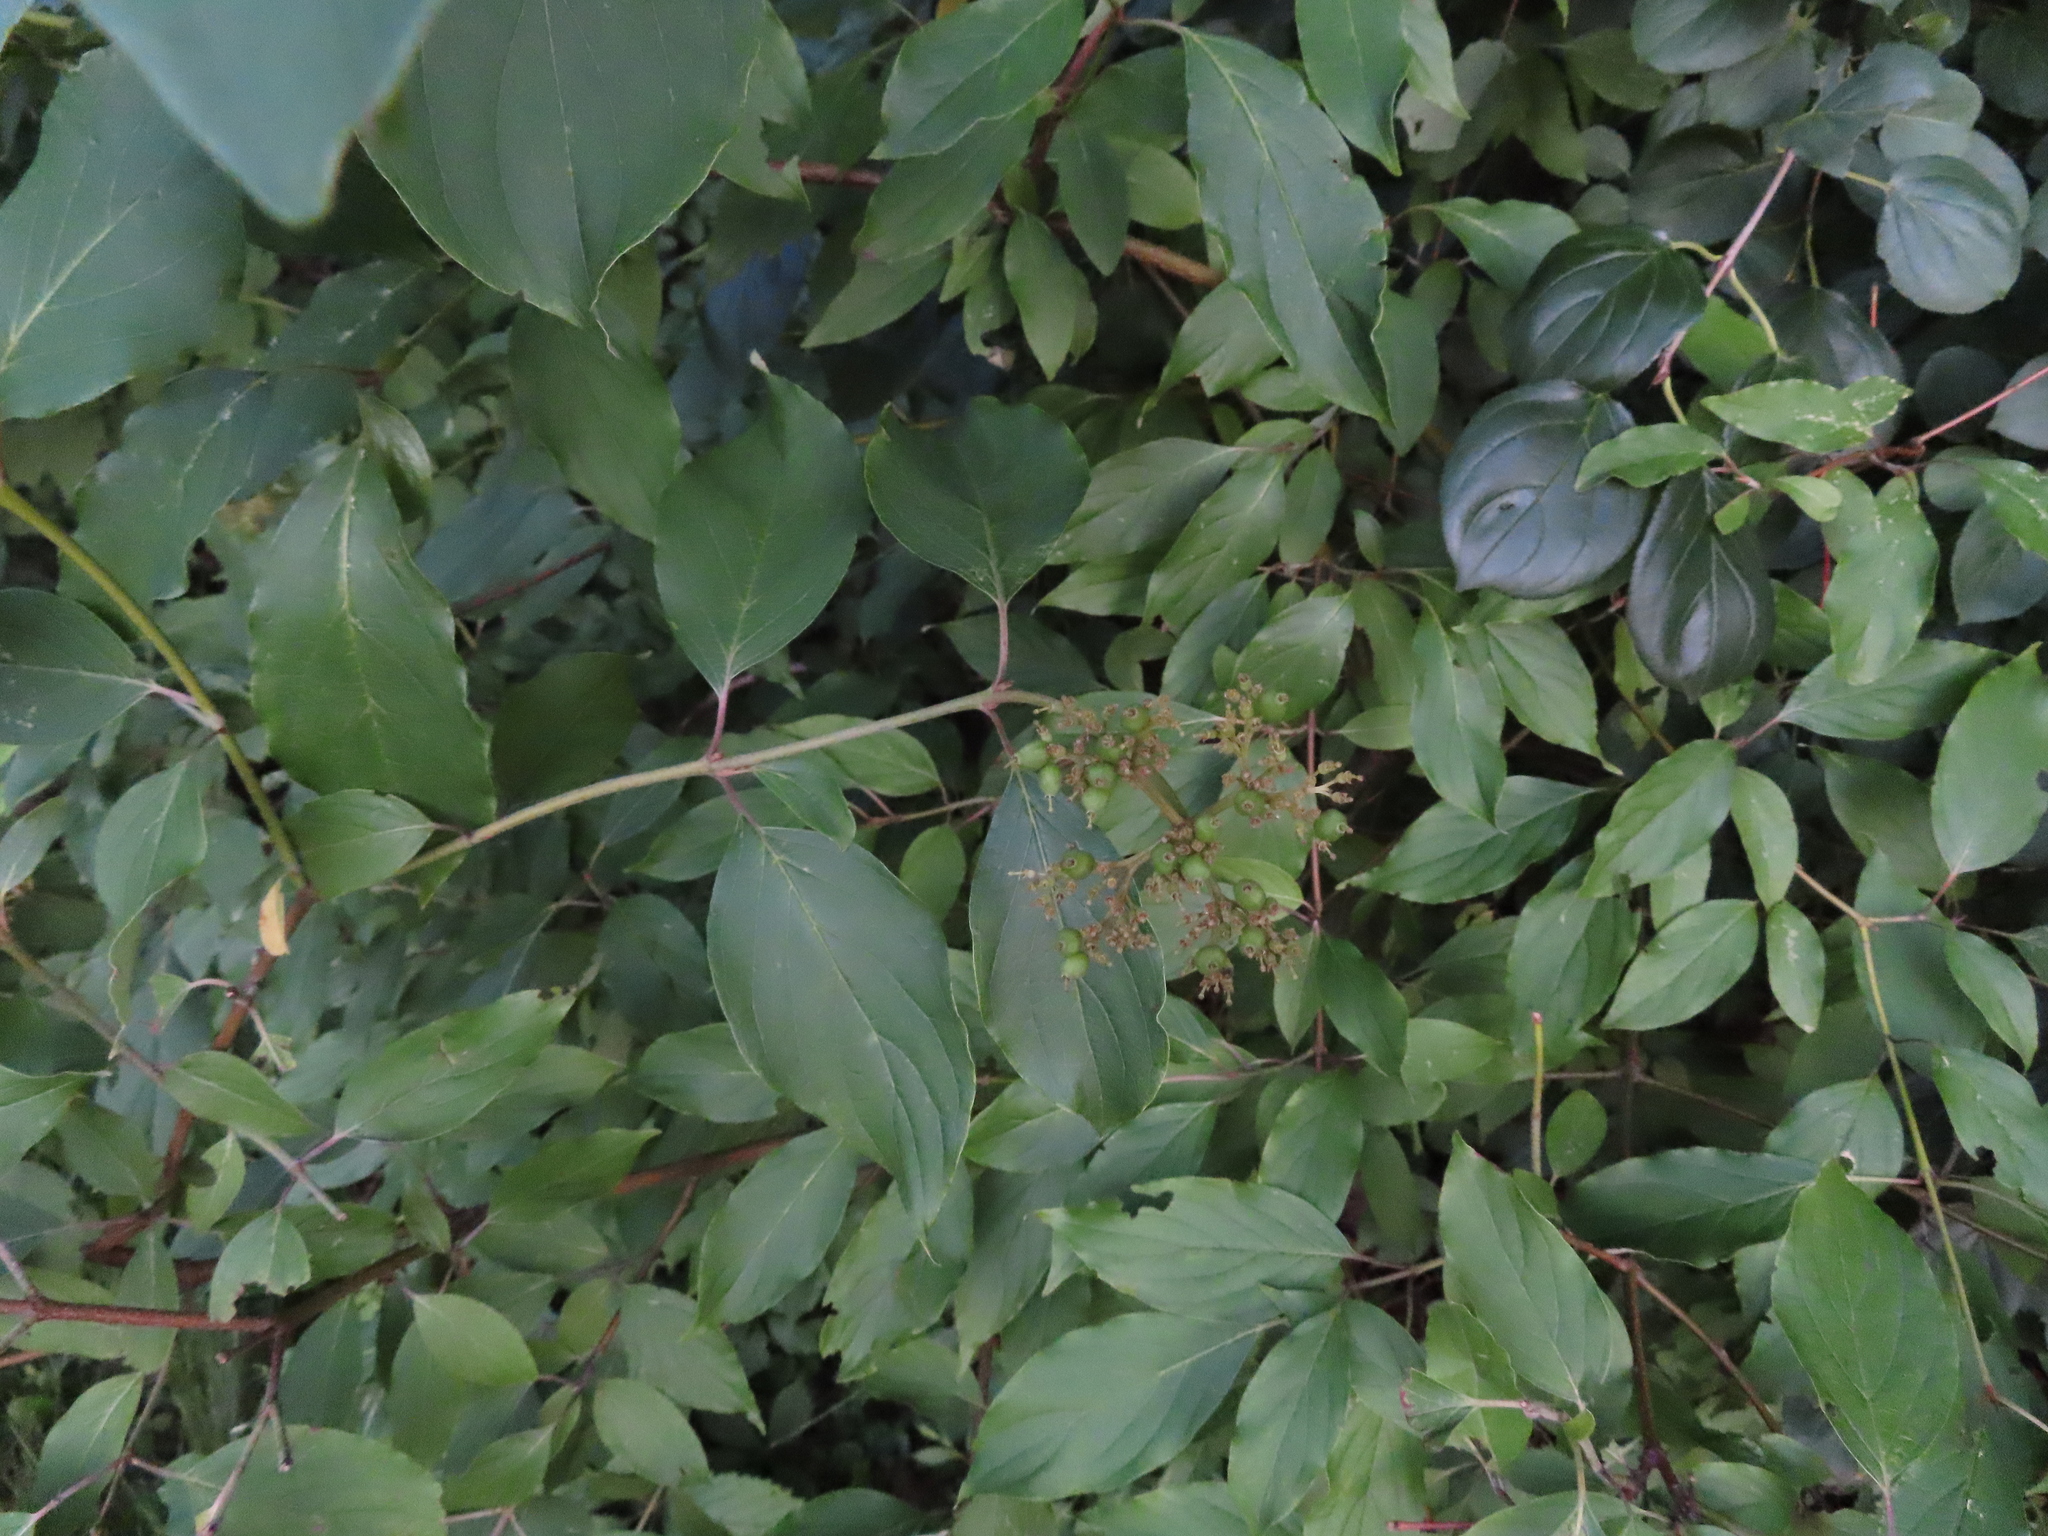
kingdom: Plantae
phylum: Tracheophyta
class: Magnoliopsida
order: Cornales
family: Cornaceae
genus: Cornus
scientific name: Cornus amomum
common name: Silky dogwood
